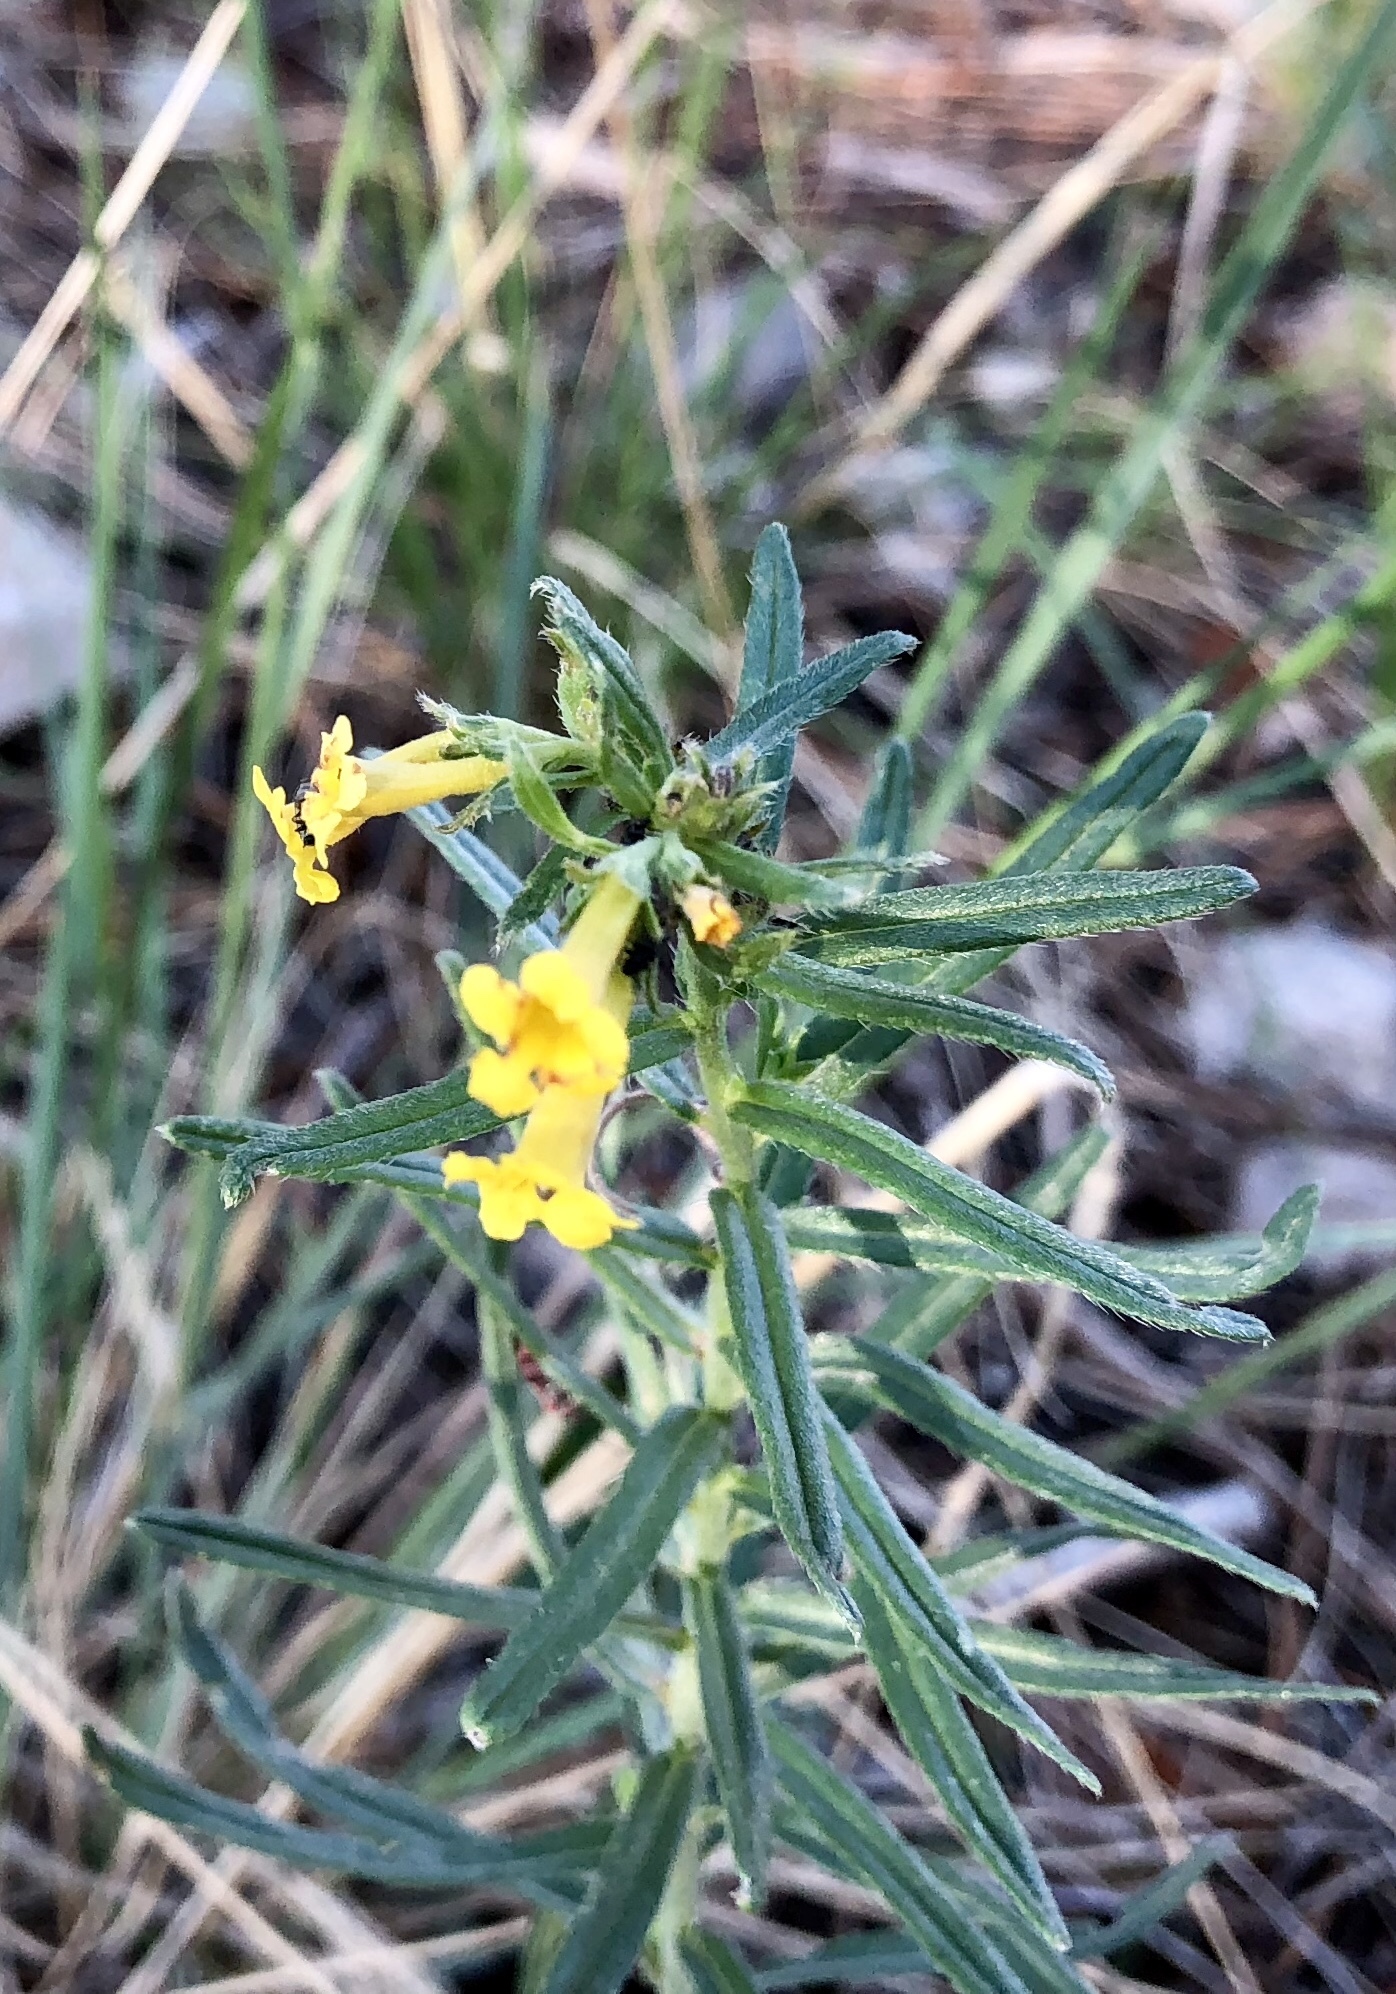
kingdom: Plantae
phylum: Tracheophyta
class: Magnoliopsida
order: Boraginales
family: Boraginaceae
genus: Lithospermum
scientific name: Lithospermum multiflorum
